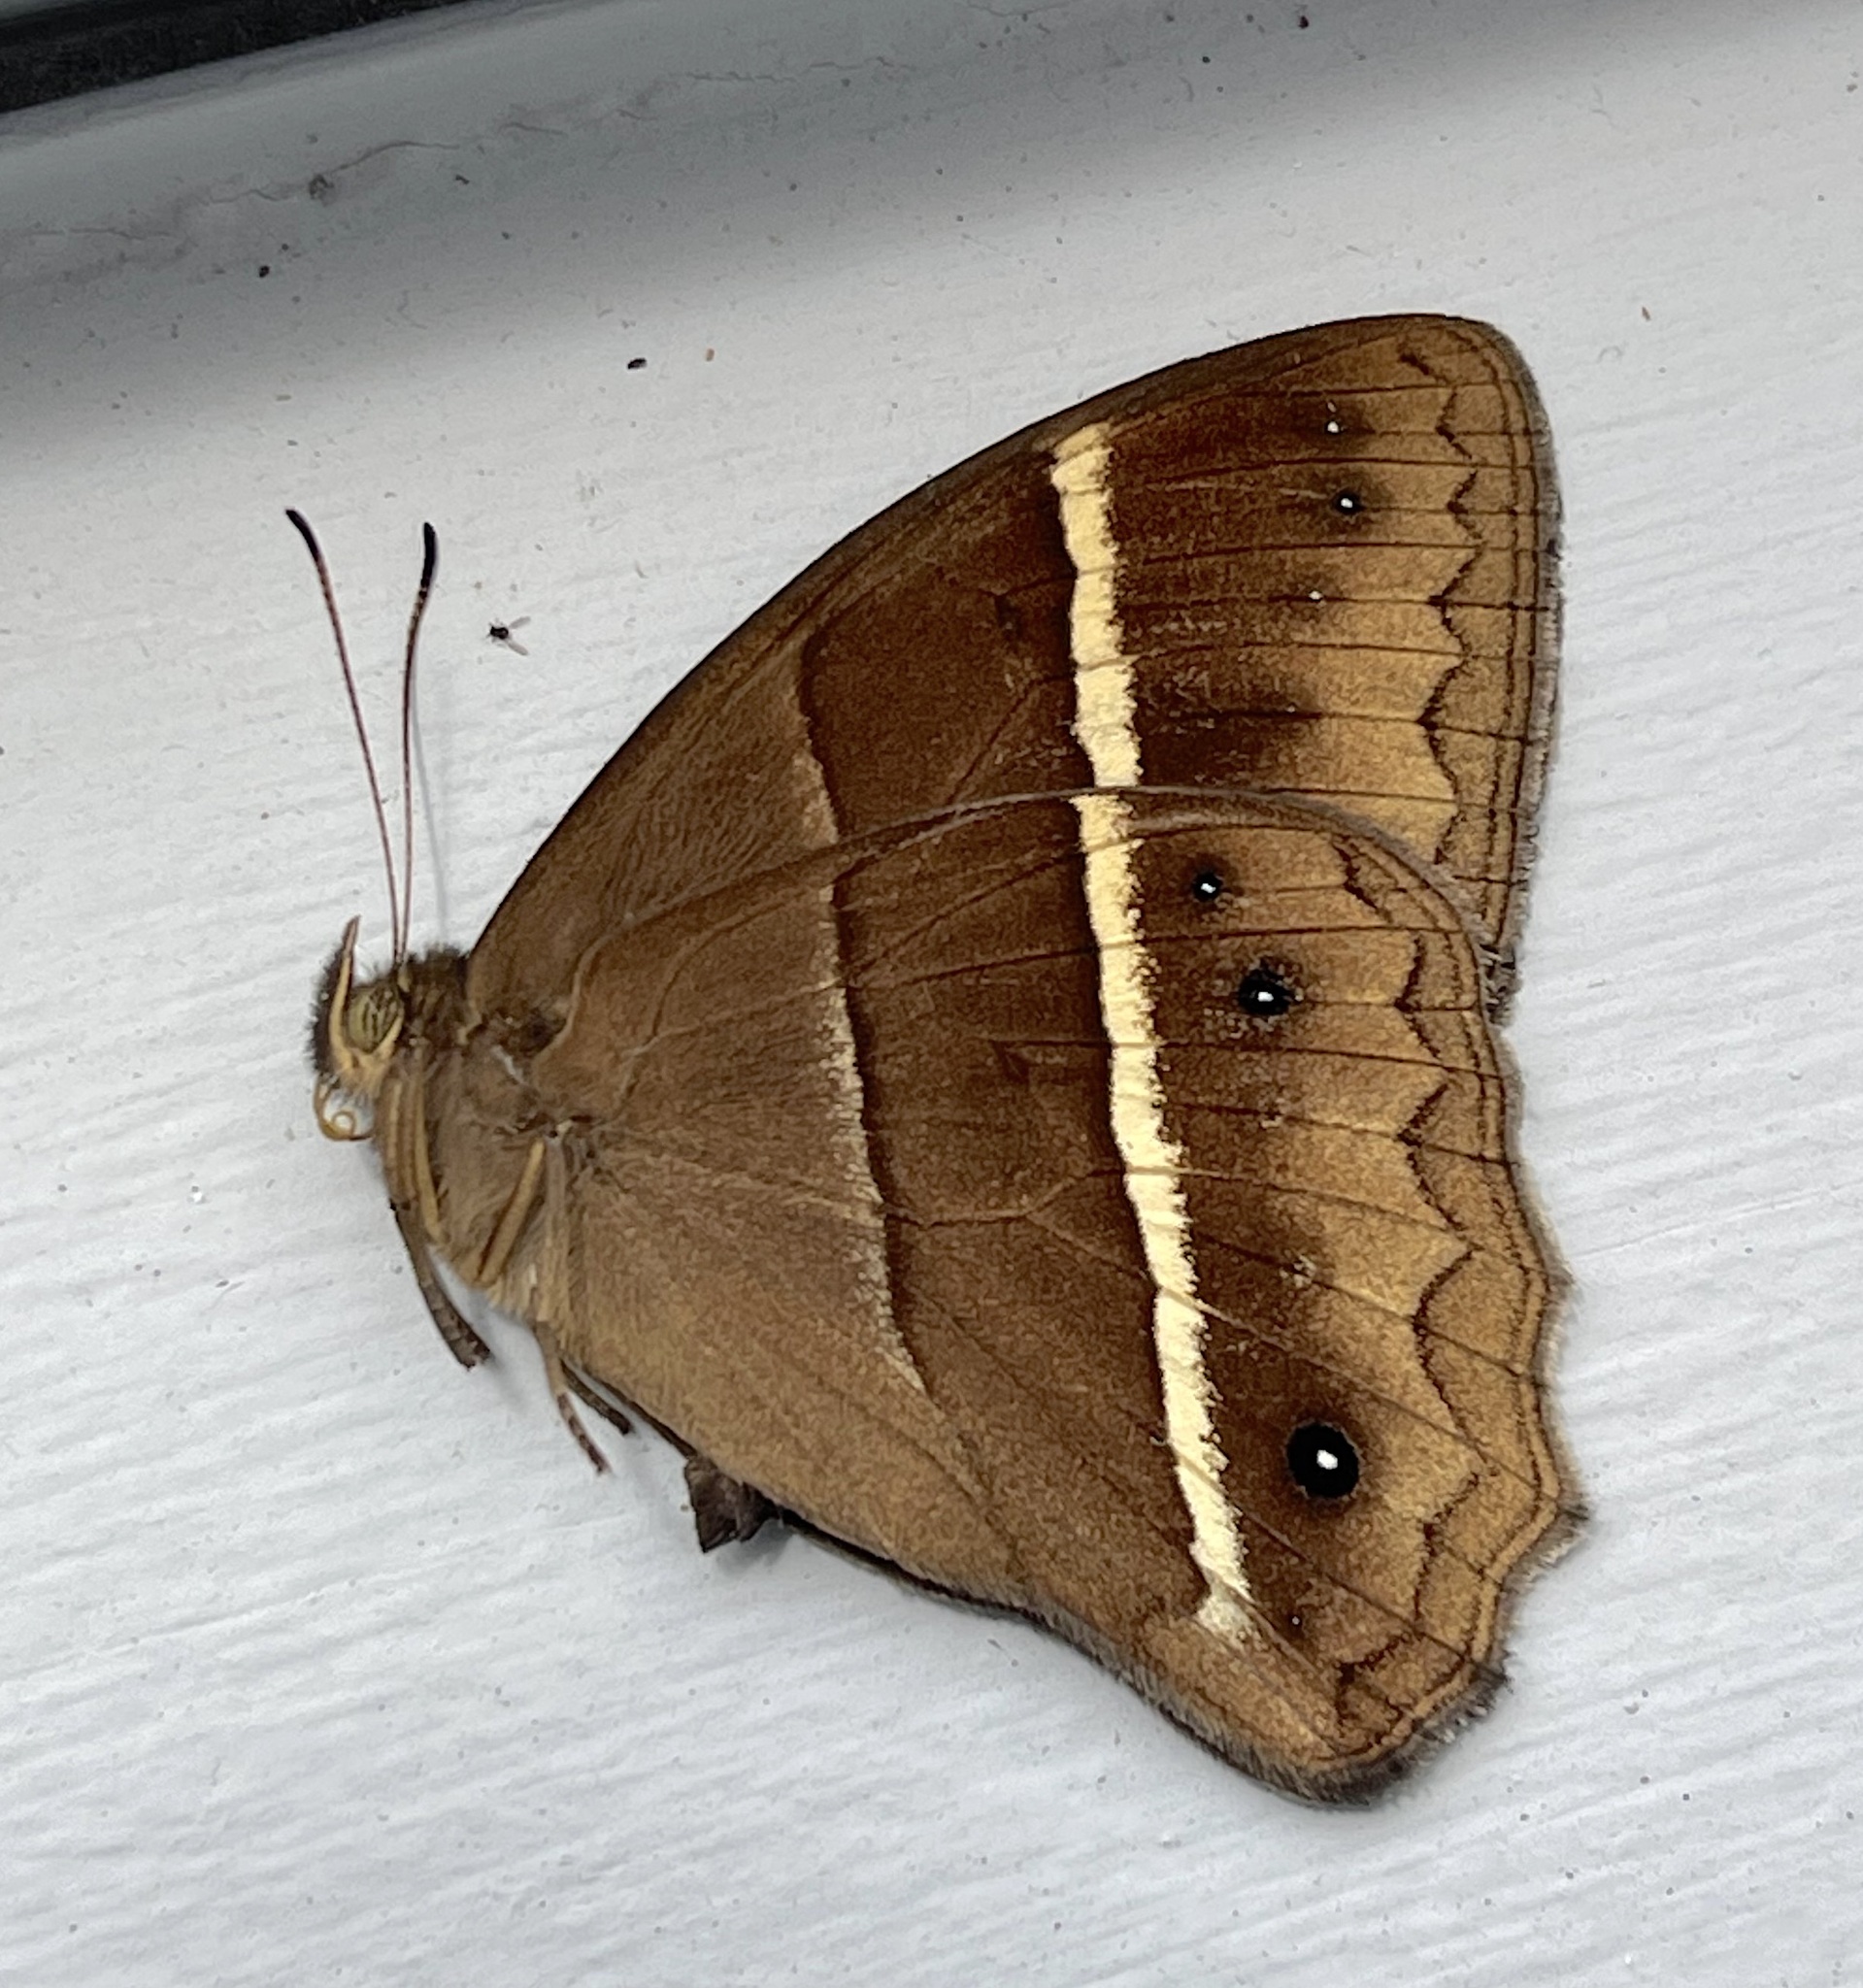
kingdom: Animalia
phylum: Arthropoda
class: Insecta
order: Lepidoptera
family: Nymphalidae
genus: Parataygetis
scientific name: Parataygetis lineata
